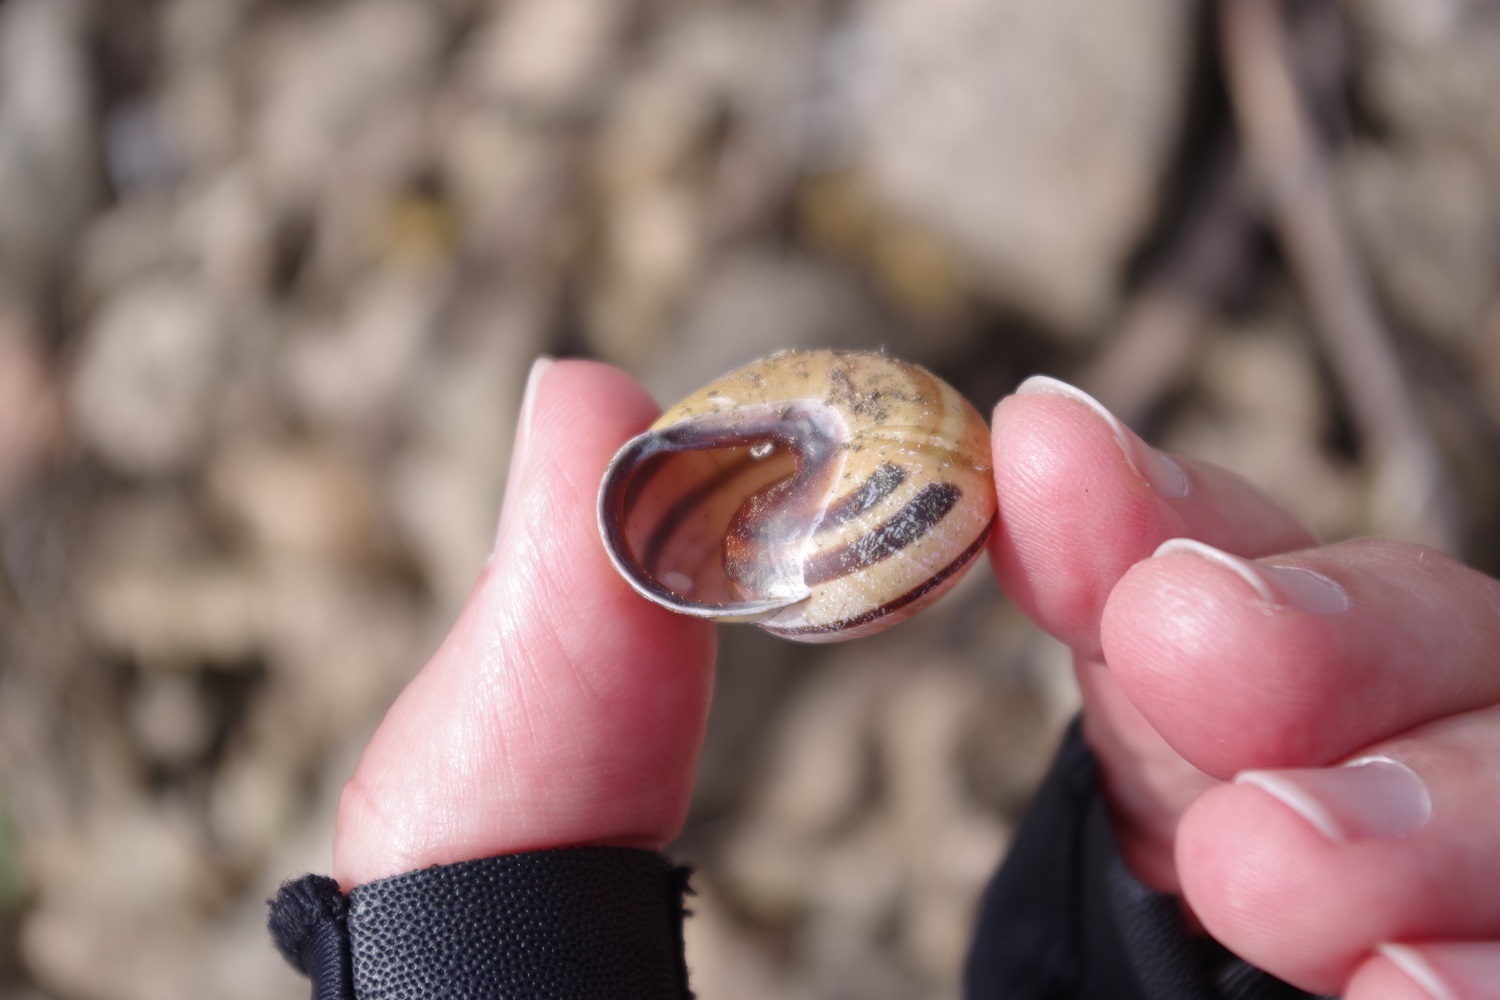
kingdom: Animalia
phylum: Mollusca
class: Gastropoda
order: Stylommatophora
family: Helicidae
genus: Cepaea
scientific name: Cepaea nemoralis
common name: Grovesnail
